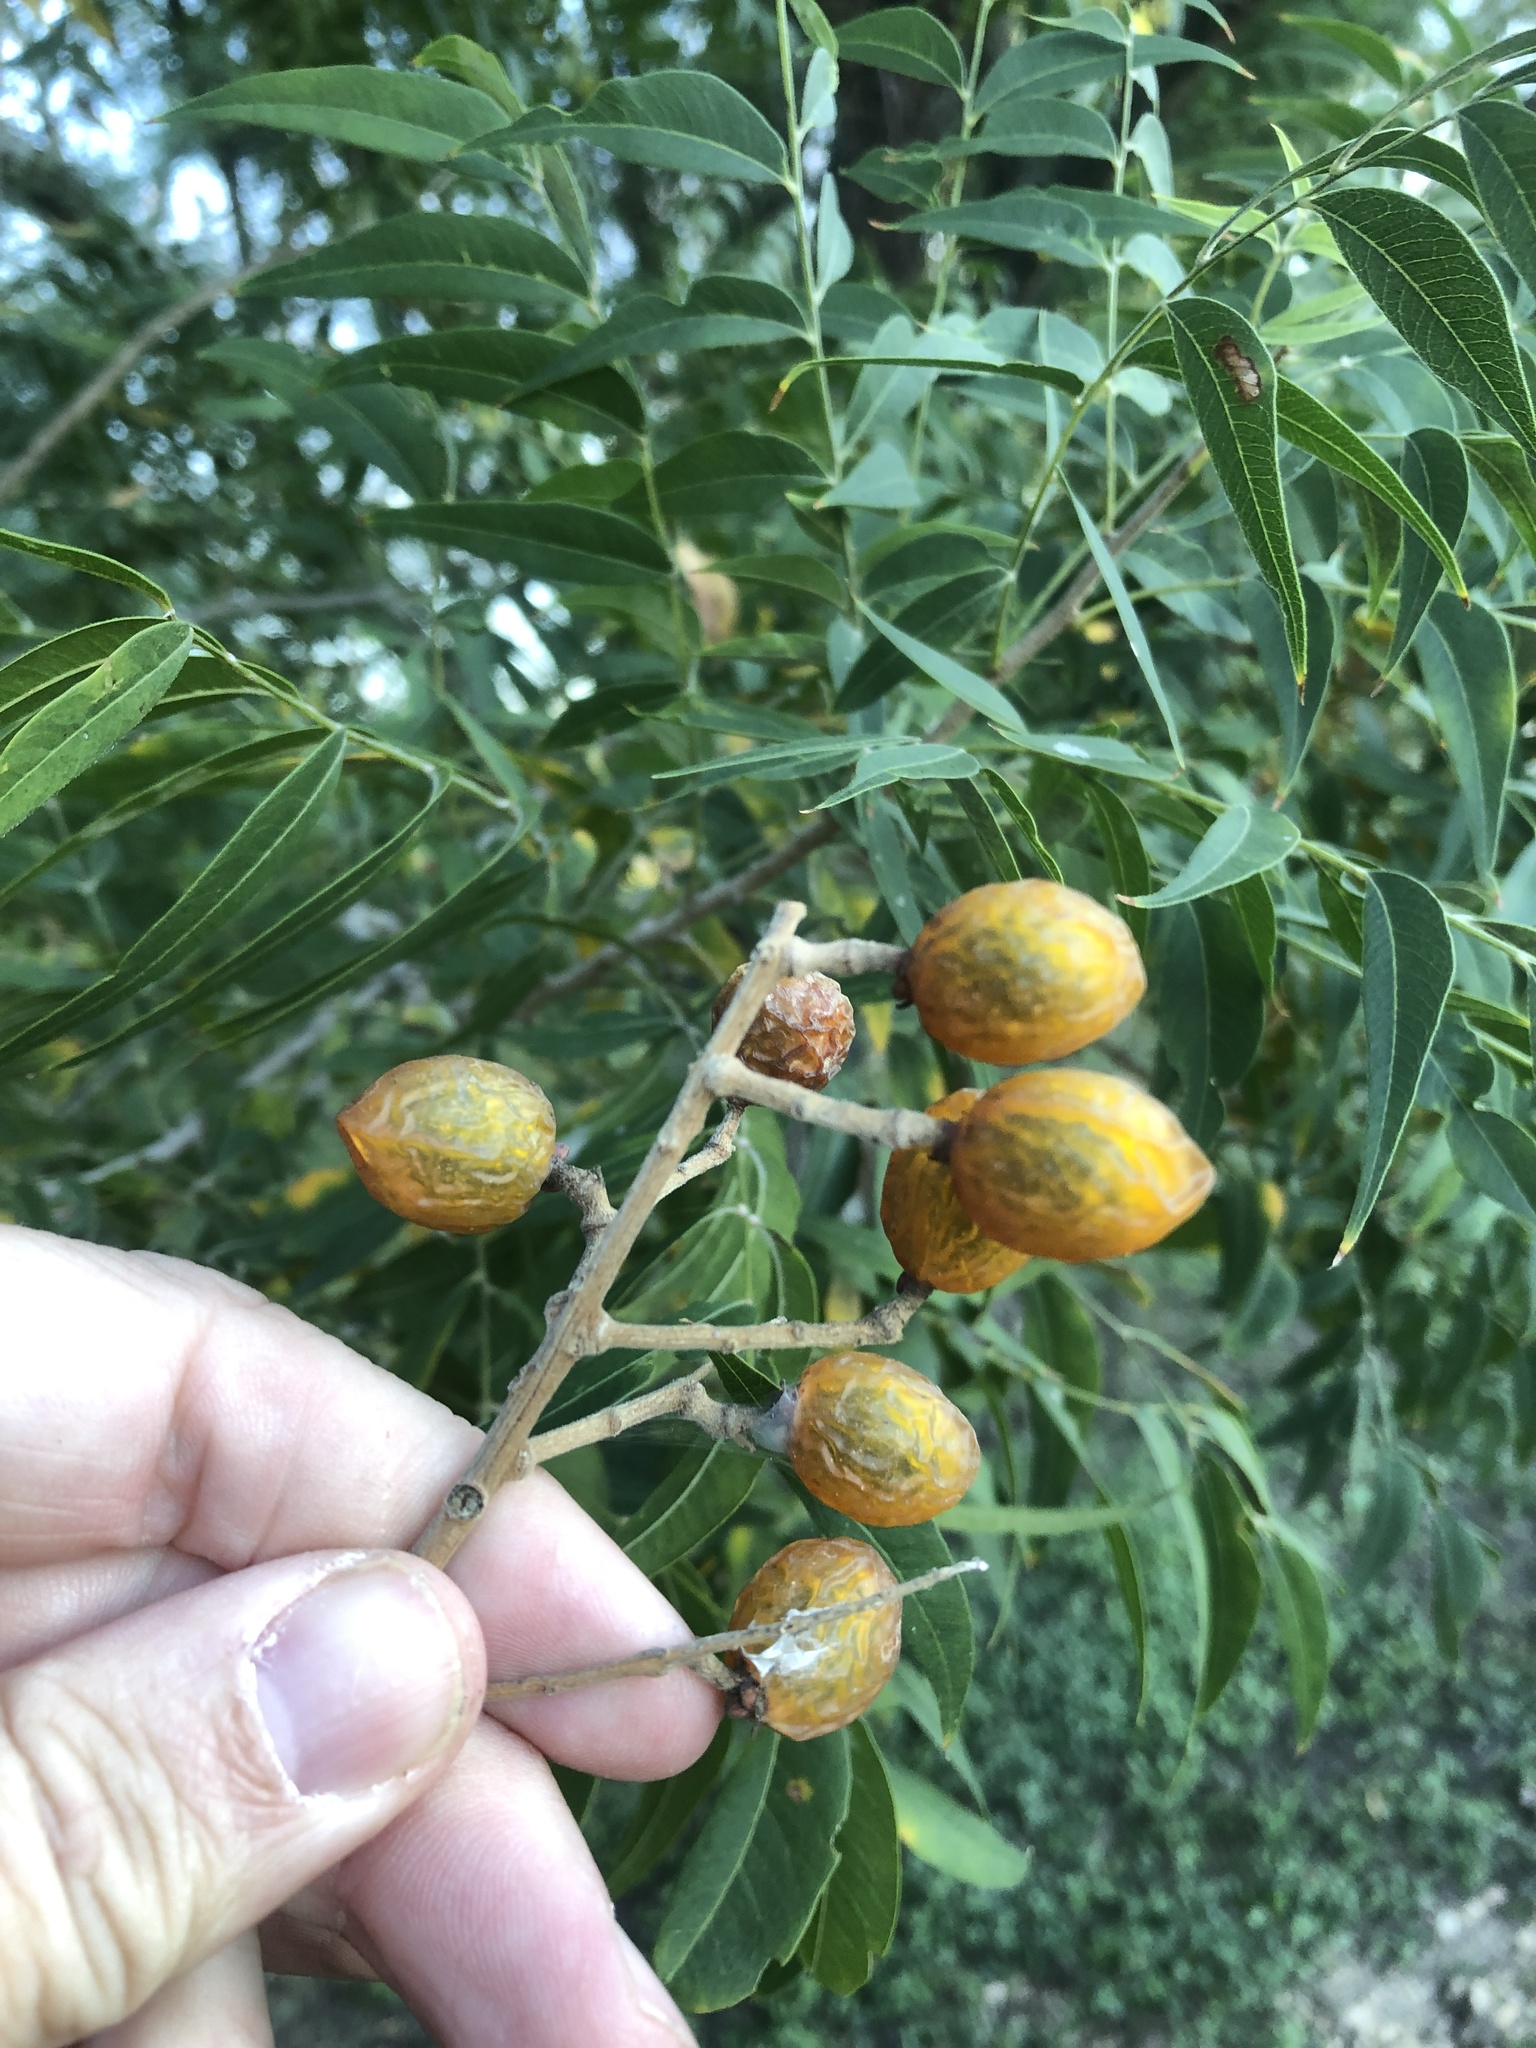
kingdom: Plantae
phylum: Tracheophyta
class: Magnoliopsida
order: Sapindales
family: Sapindaceae
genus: Sapindus
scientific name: Sapindus drummondii
